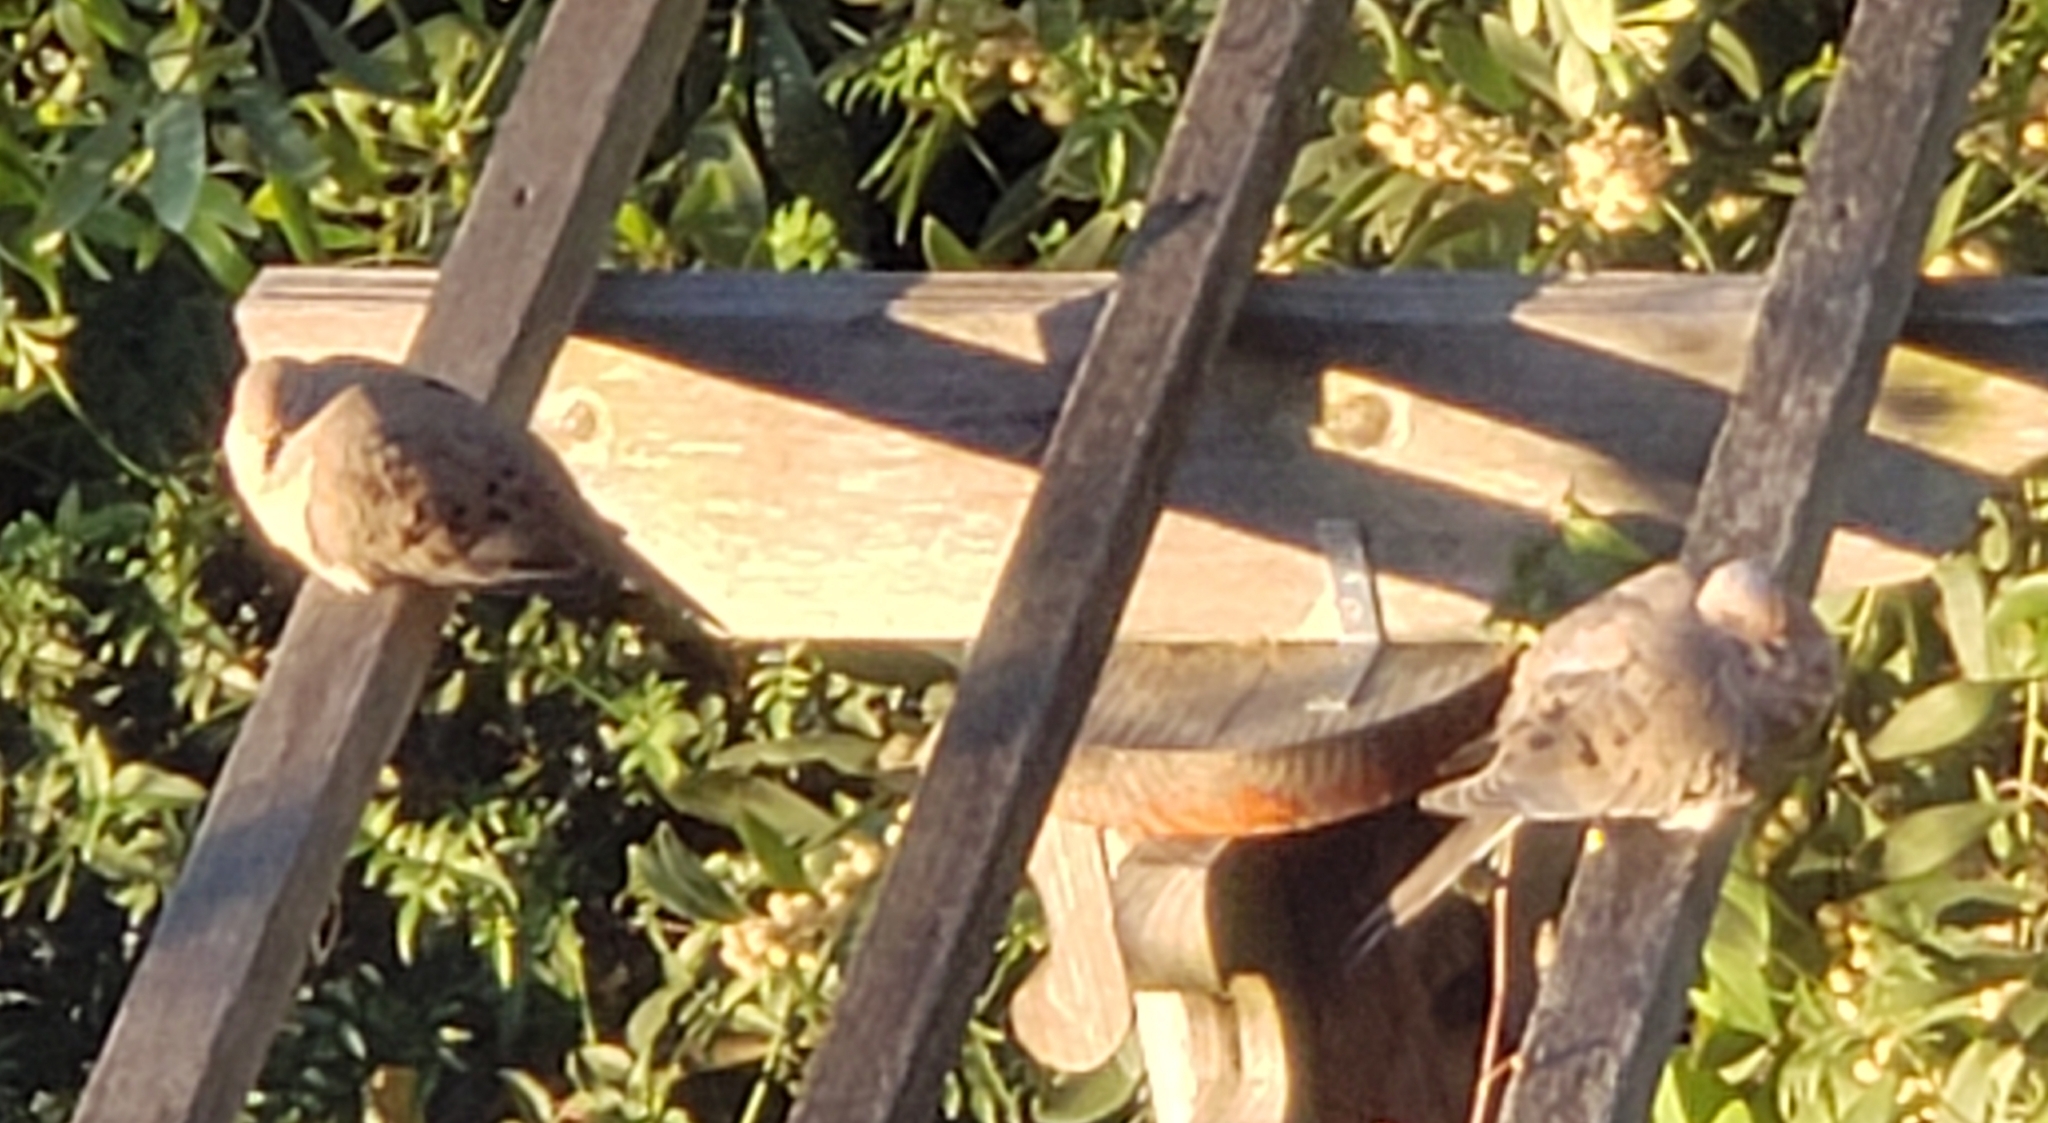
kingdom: Animalia
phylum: Chordata
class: Aves
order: Columbiformes
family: Columbidae
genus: Zenaida
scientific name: Zenaida macroura
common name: Mourning dove
